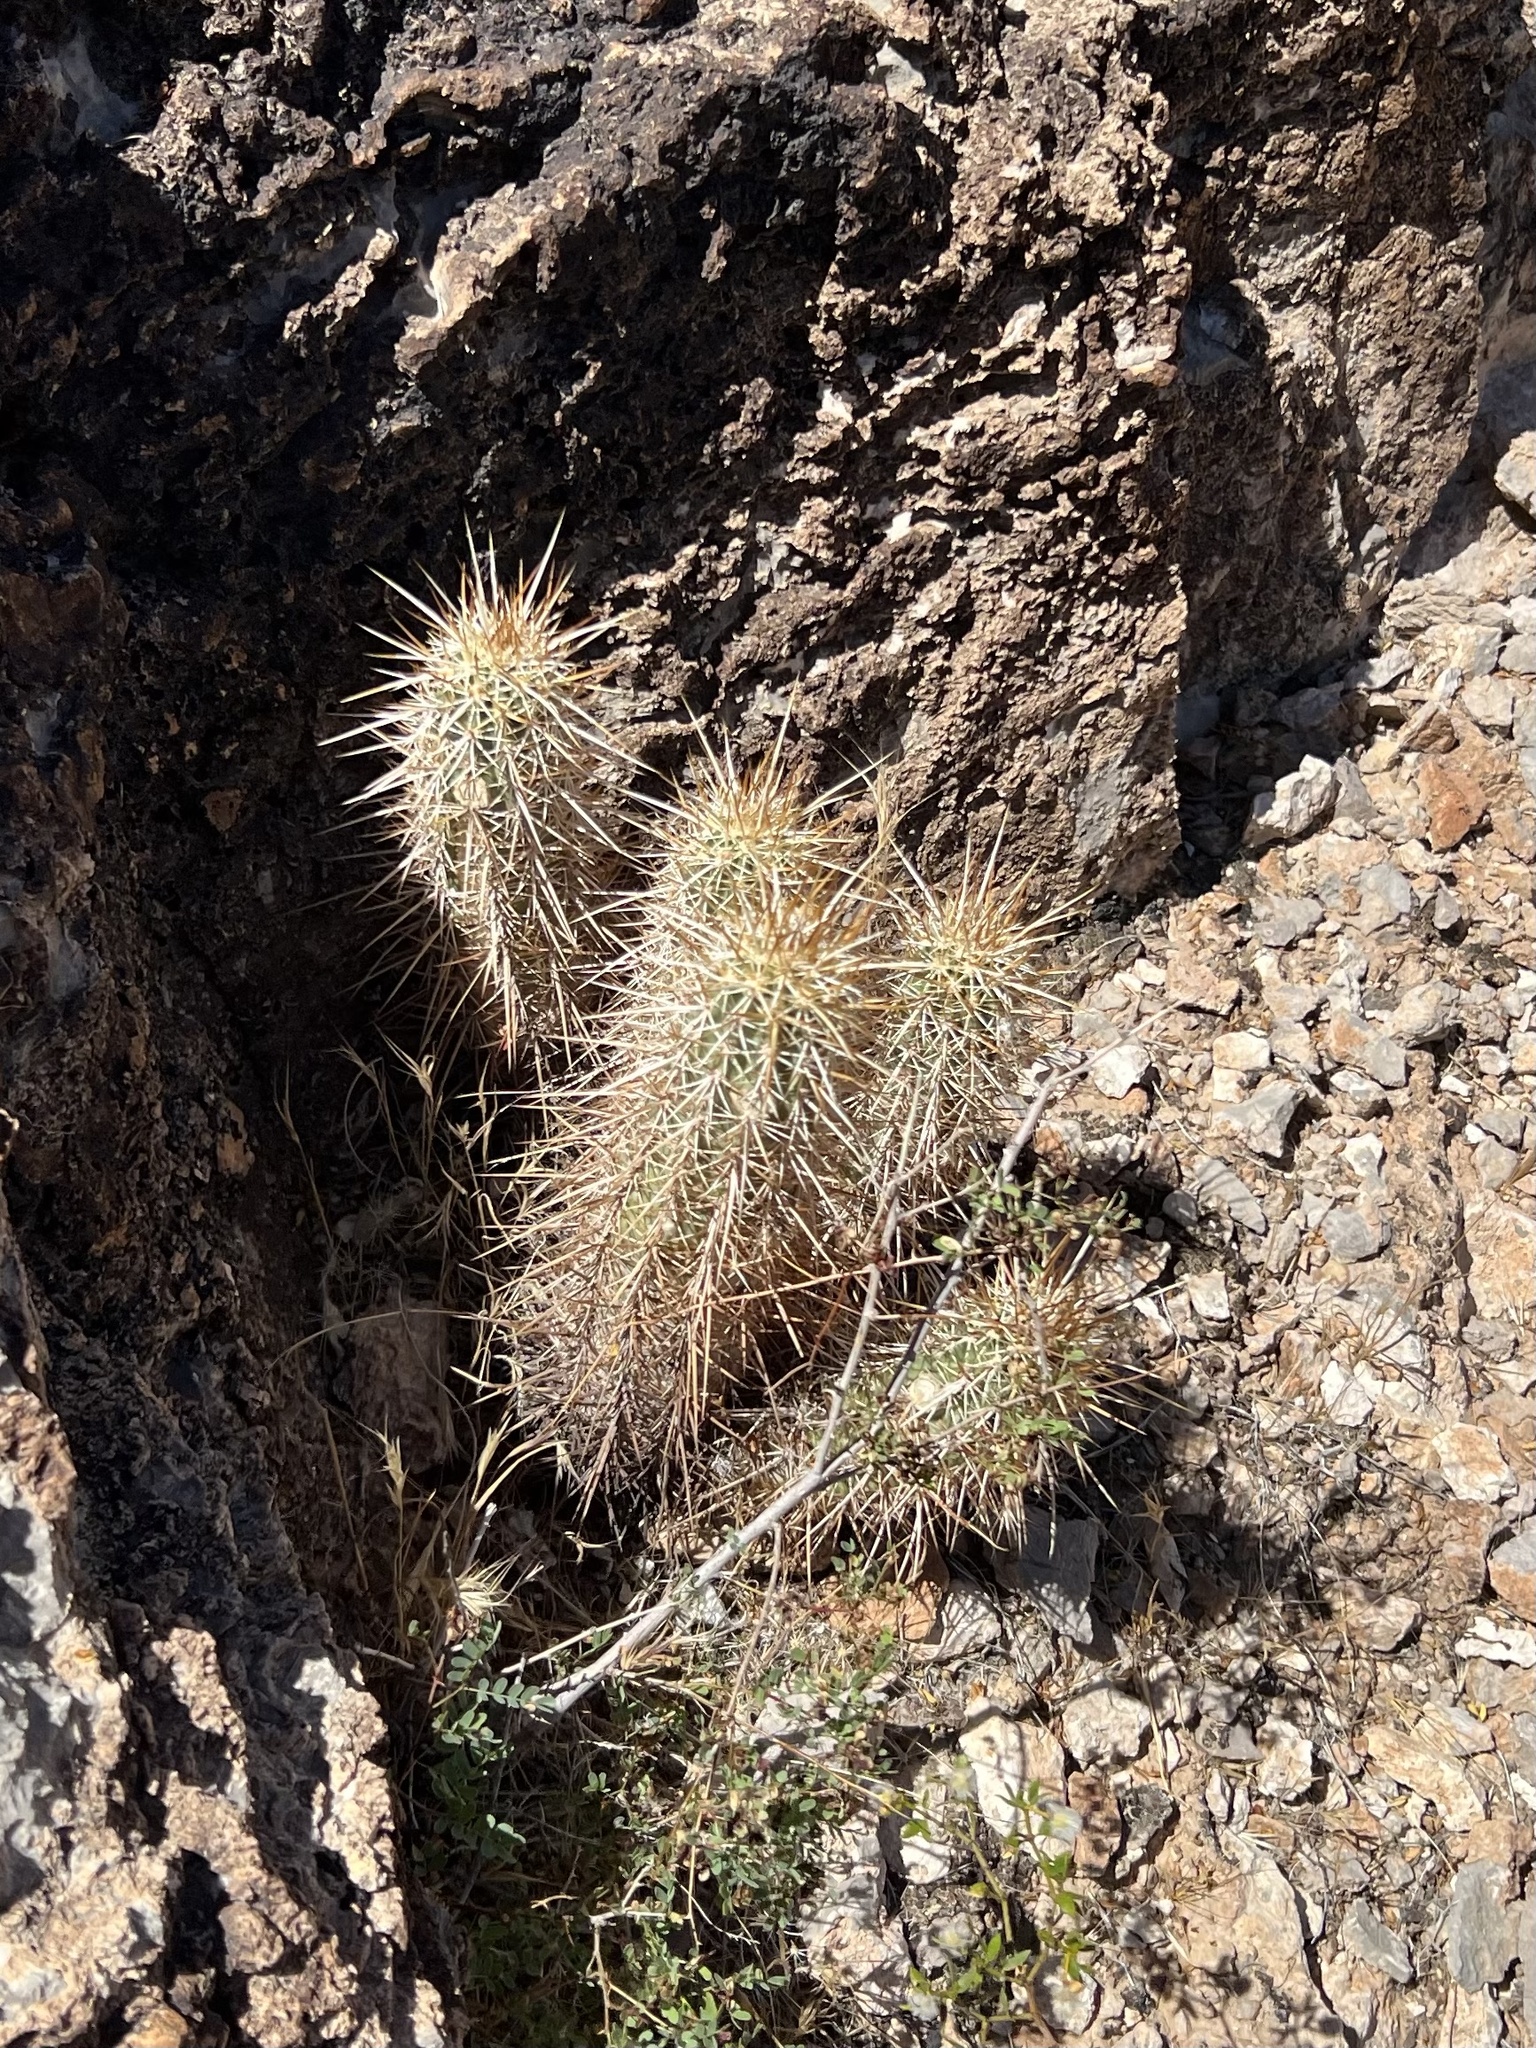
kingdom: Plantae
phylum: Tracheophyta
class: Magnoliopsida
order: Caryophyllales
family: Cactaceae
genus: Echinocereus
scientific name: Echinocereus engelmannii
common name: Engelmann's hedgehog cactus
